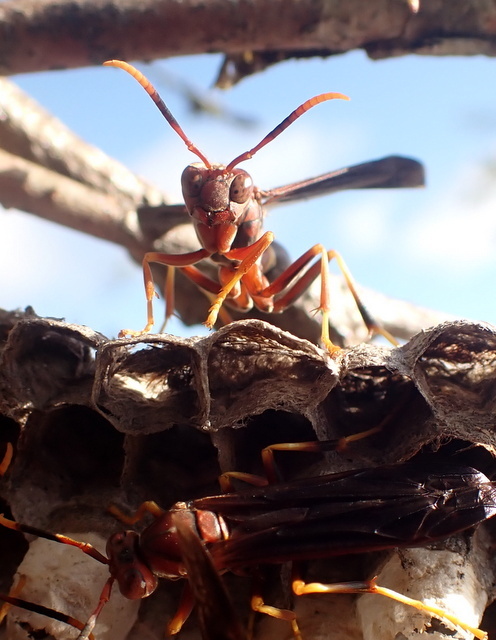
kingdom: Animalia
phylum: Arthropoda
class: Insecta
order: Hymenoptera
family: Eumenidae
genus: Polistes
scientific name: Polistes annularis
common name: Ringed paper wasp
